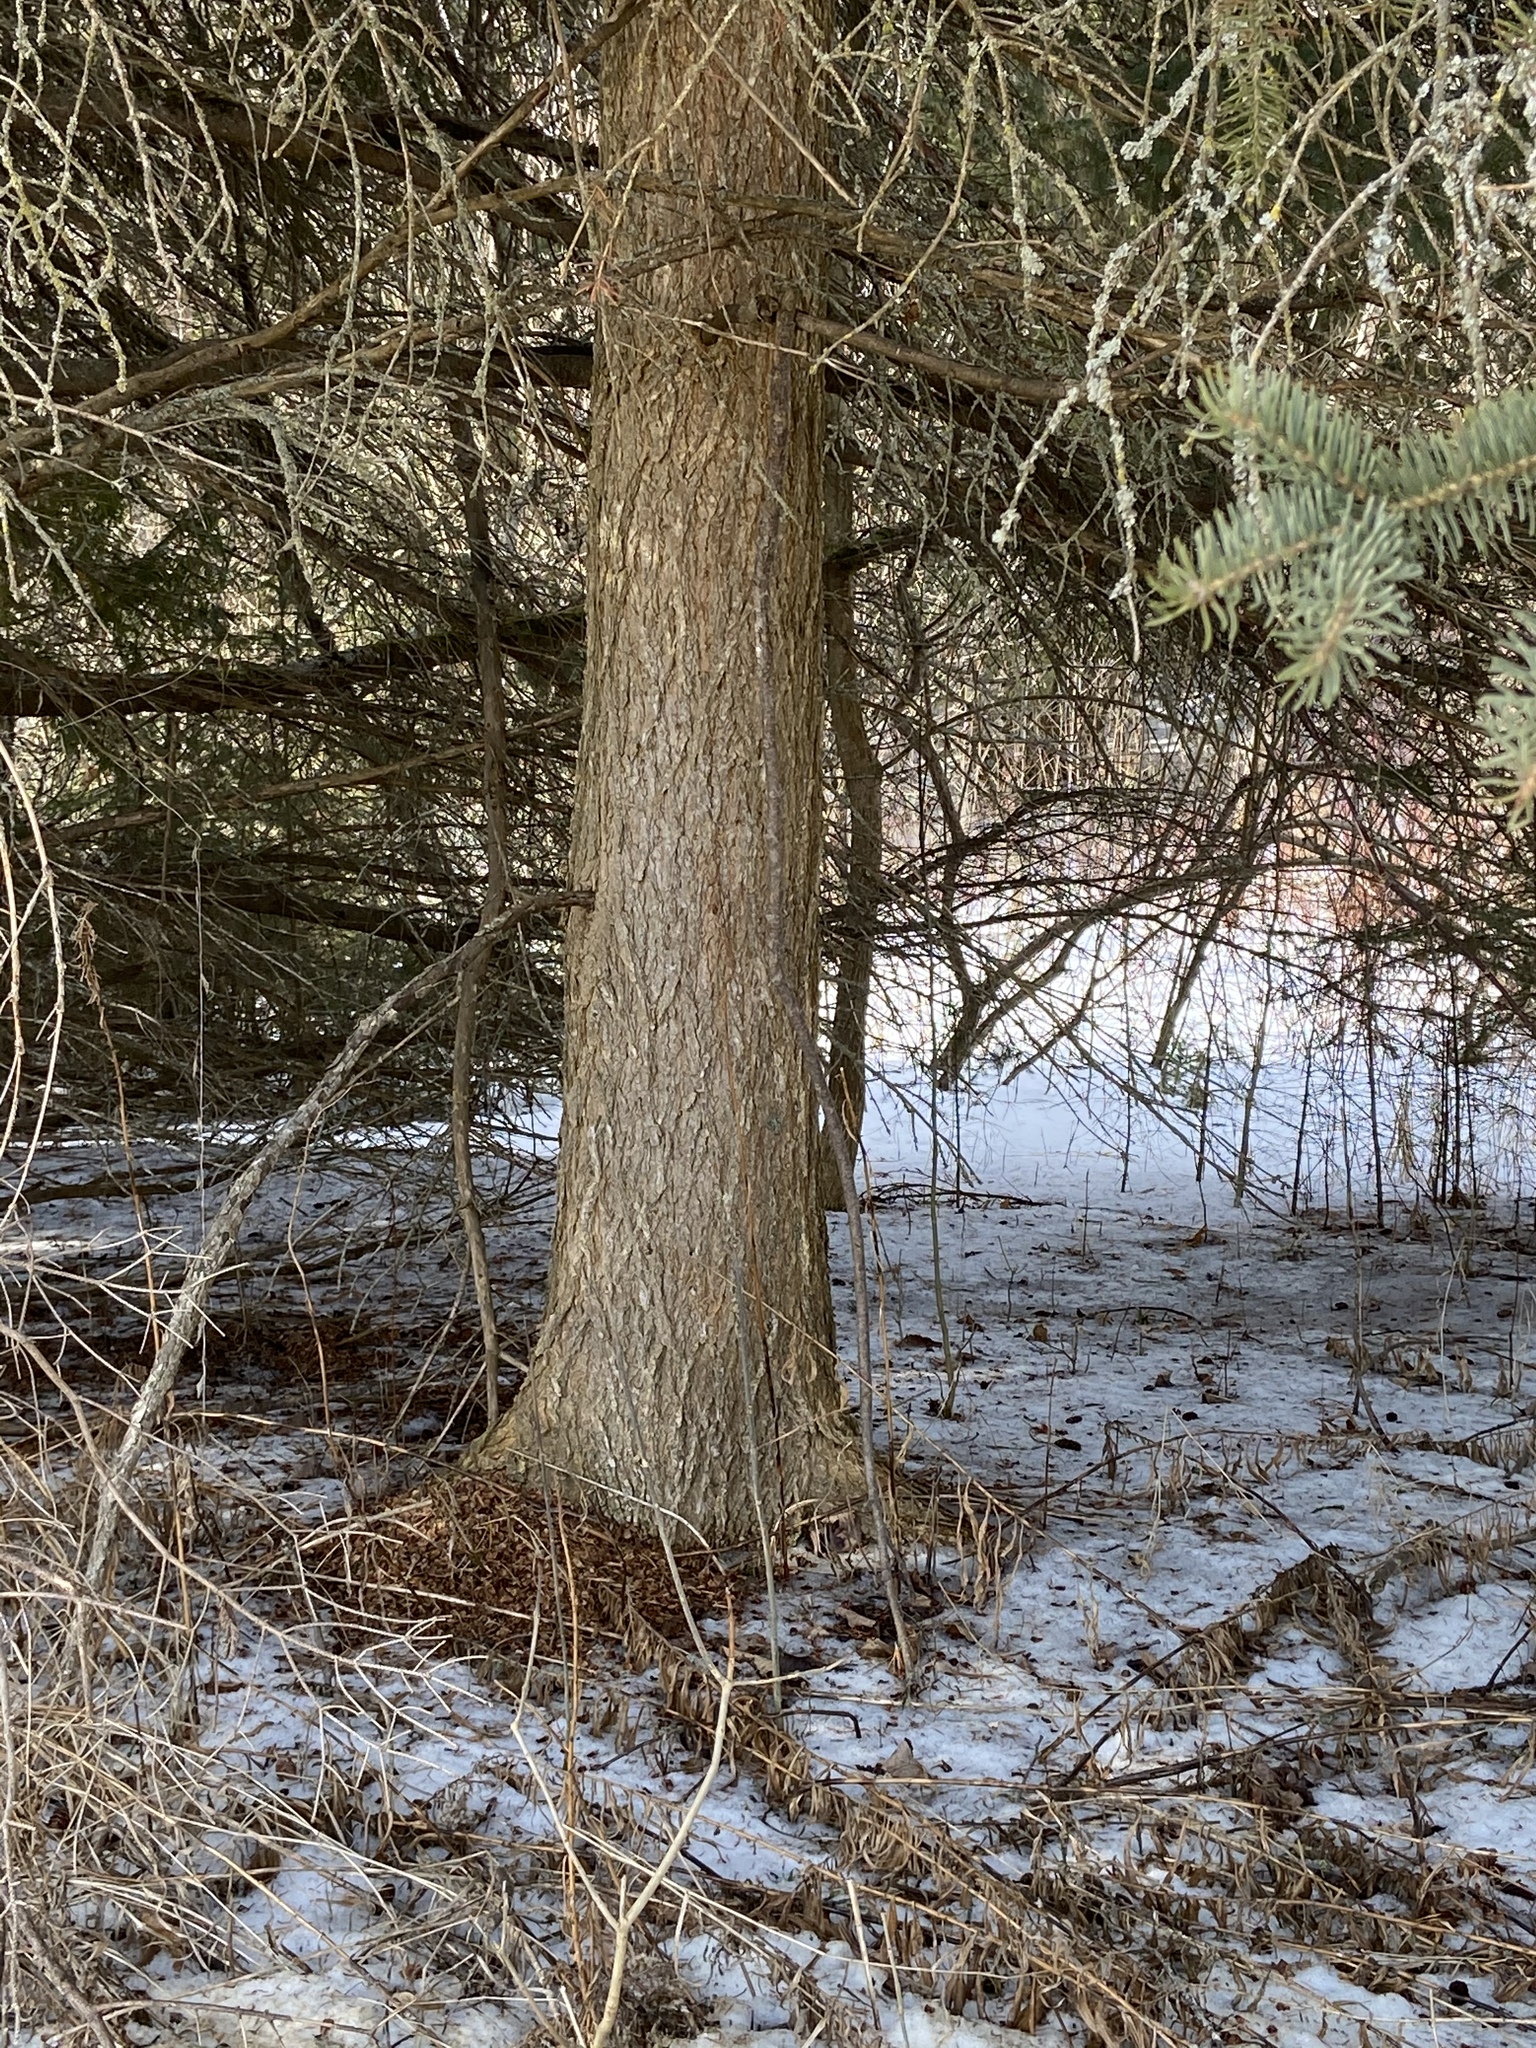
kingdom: Plantae
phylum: Tracheophyta
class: Magnoliopsida
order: Rosales
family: Ulmaceae
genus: Ulmus
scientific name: Ulmus americana
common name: American elm
